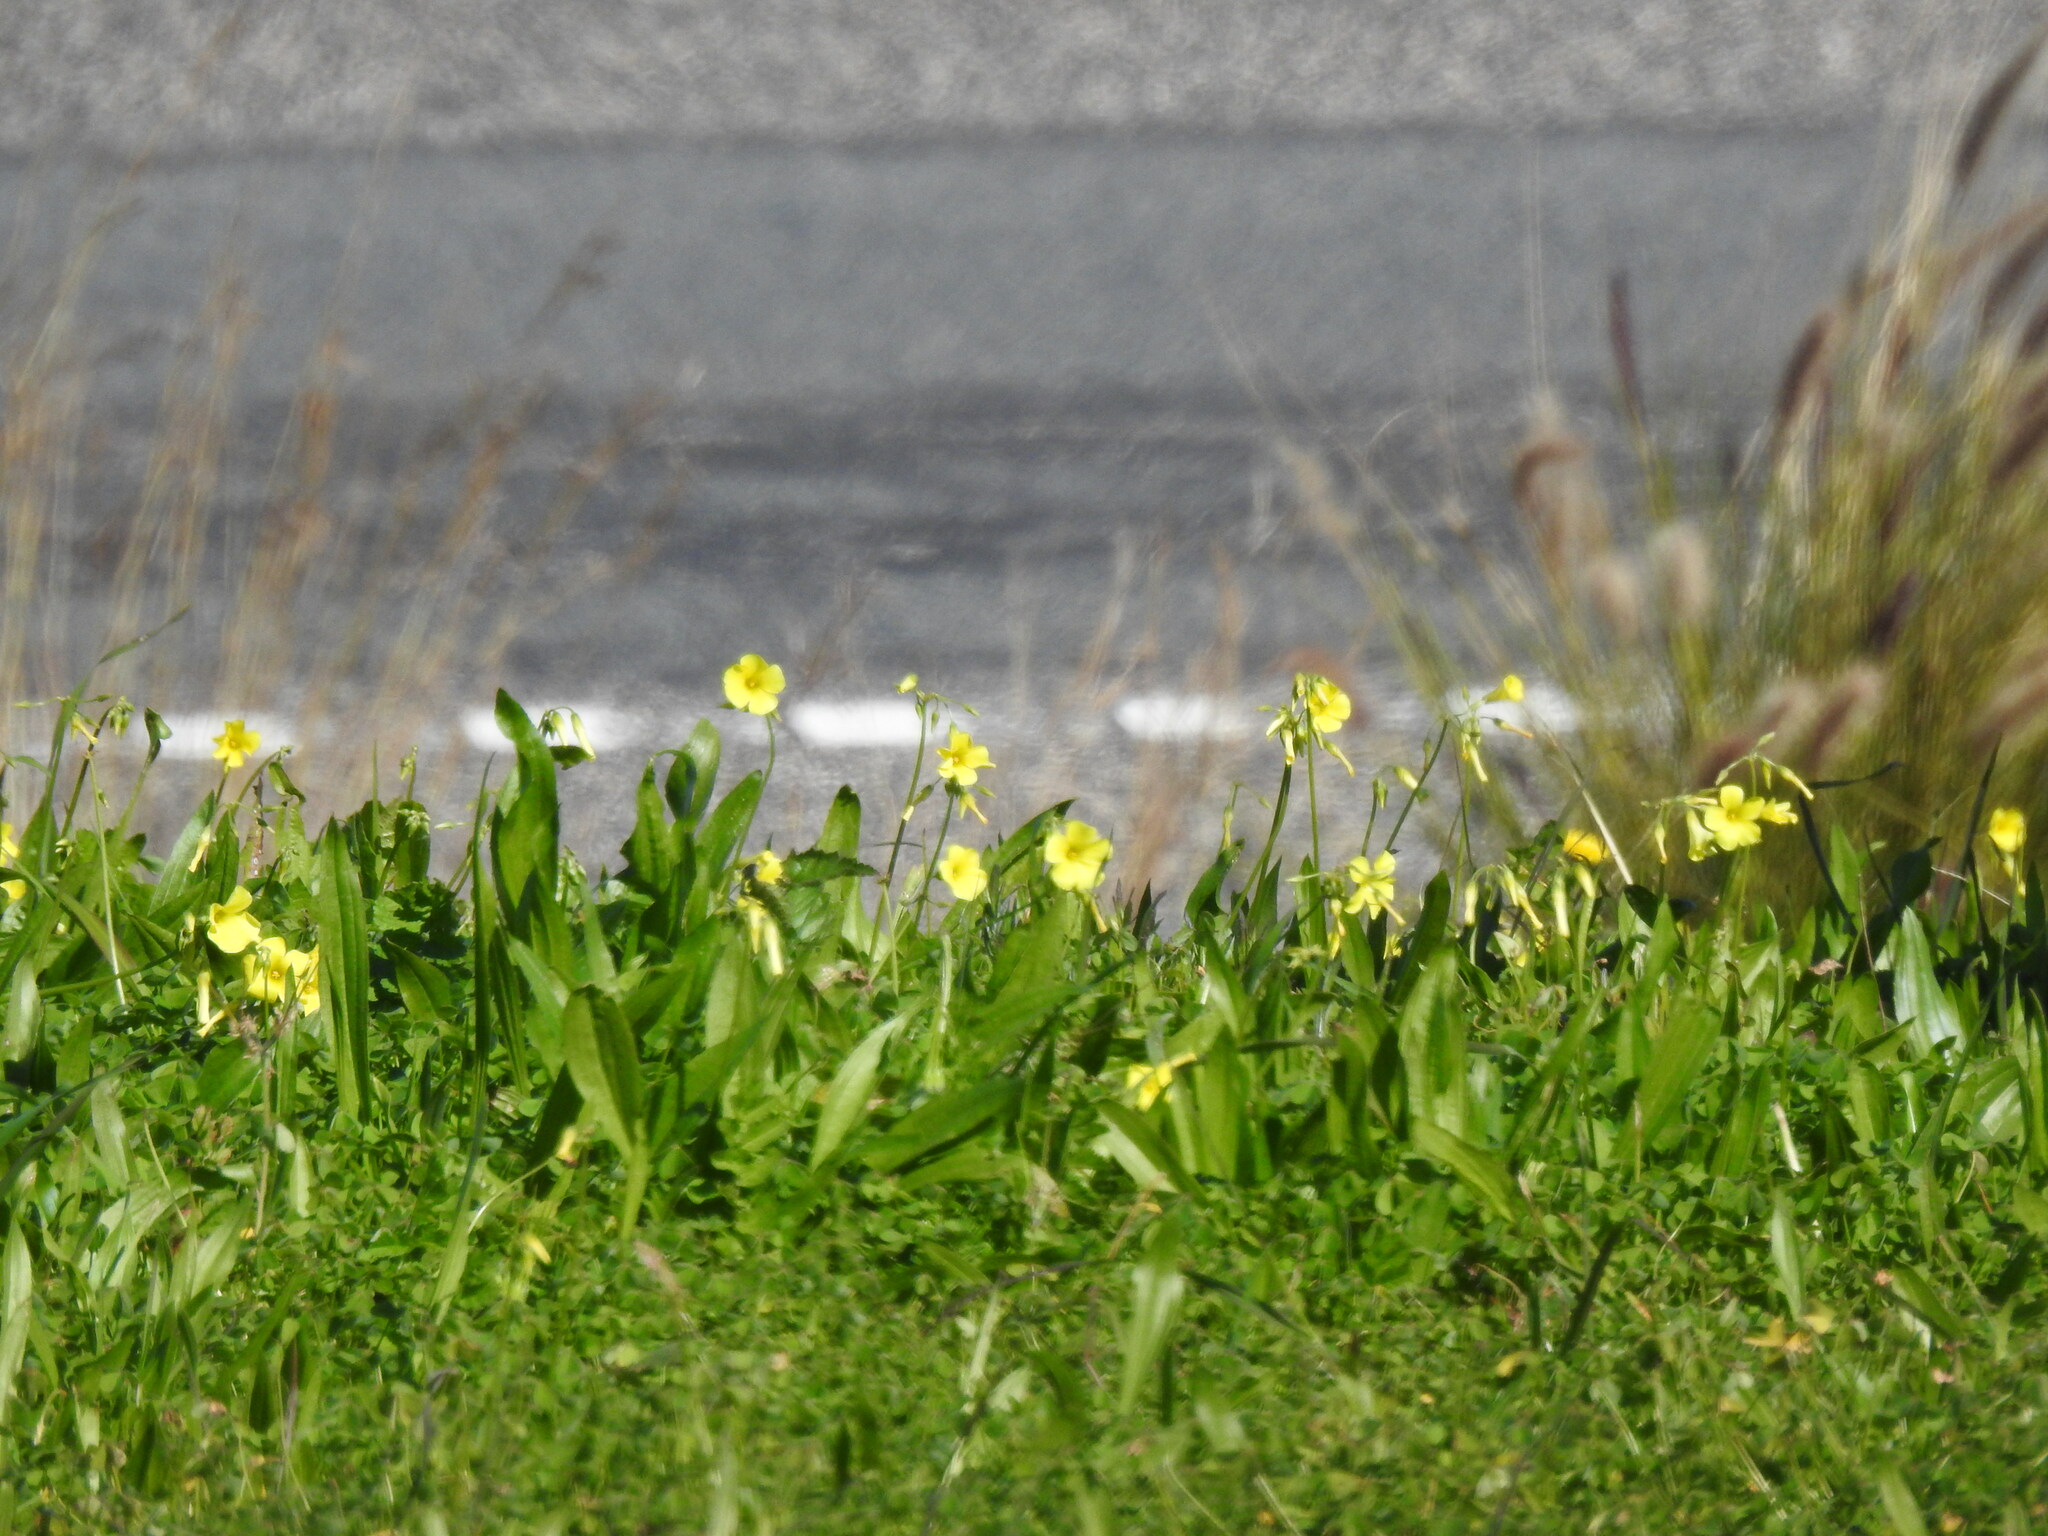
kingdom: Plantae
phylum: Tracheophyta
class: Magnoliopsida
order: Oxalidales
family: Oxalidaceae
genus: Oxalis
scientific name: Oxalis pes-caprae
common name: Bermuda-buttercup
